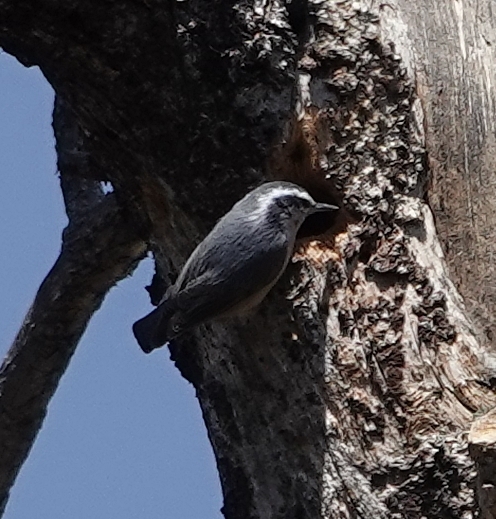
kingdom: Animalia
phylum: Chordata
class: Aves
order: Passeriformes
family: Sittidae
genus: Sitta
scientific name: Sitta canadensis
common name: Red-breasted nuthatch
